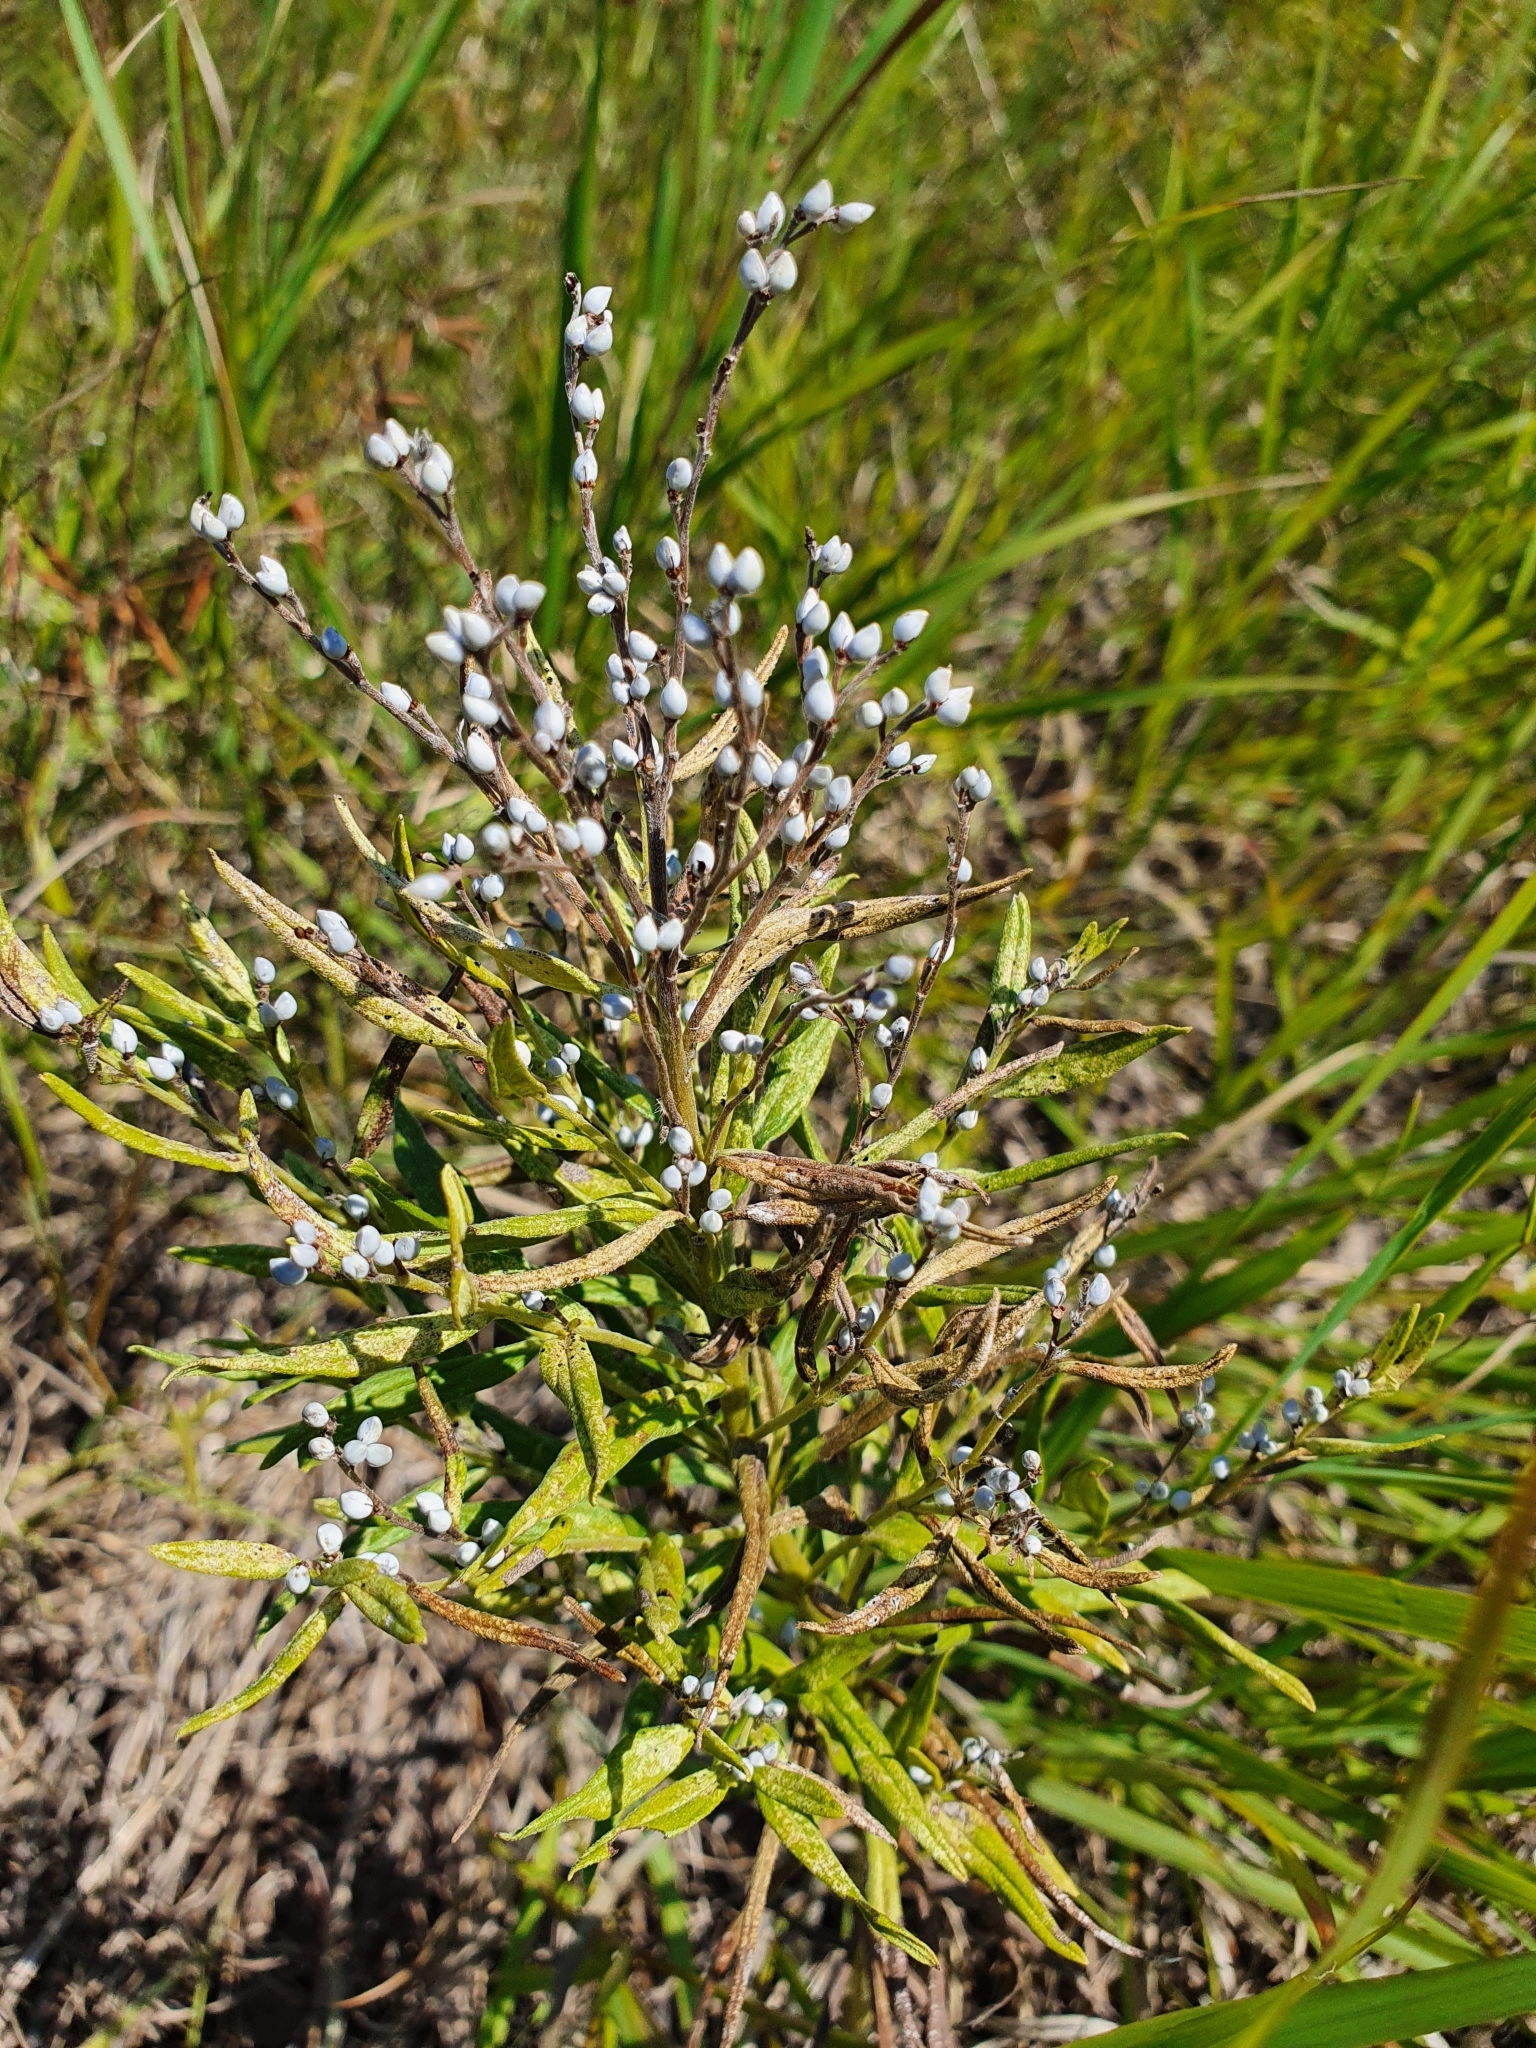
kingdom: Plantae
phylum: Tracheophyta
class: Magnoliopsida
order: Boraginales
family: Boraginaceae
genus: Lithospermum
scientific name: Lithospermum officinale
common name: Common gromwell
